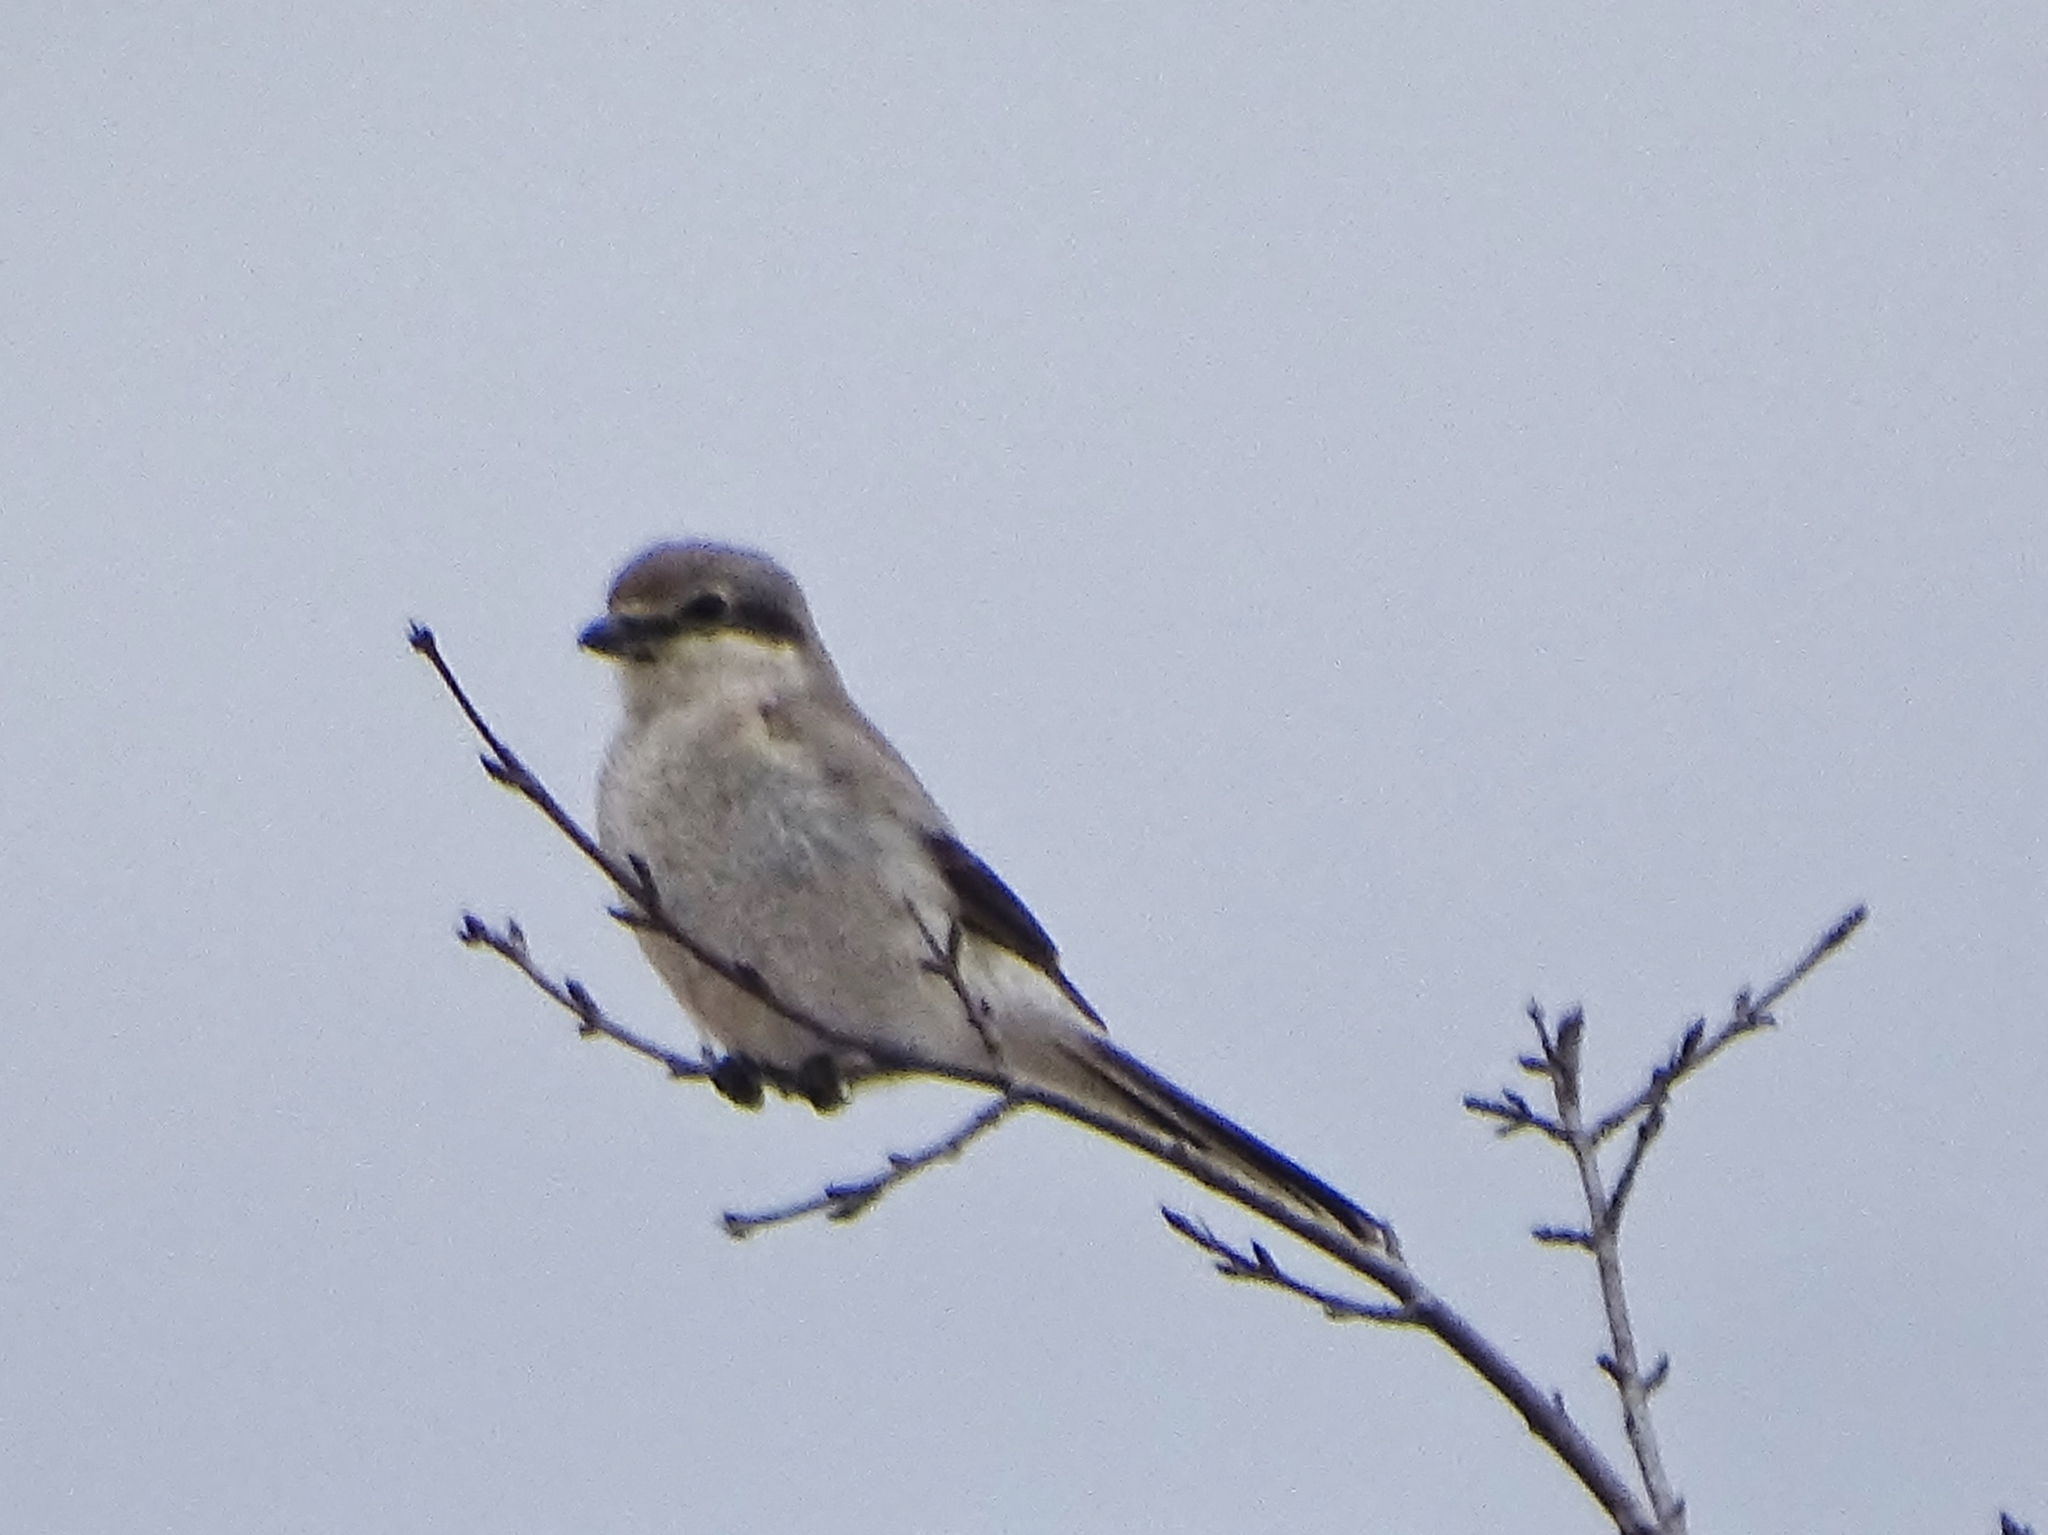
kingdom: Animalia
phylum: Chordata
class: Aves
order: Passeriformes
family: Laniidae
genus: Lanius
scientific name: Lanius borealis
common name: Northern shrike
